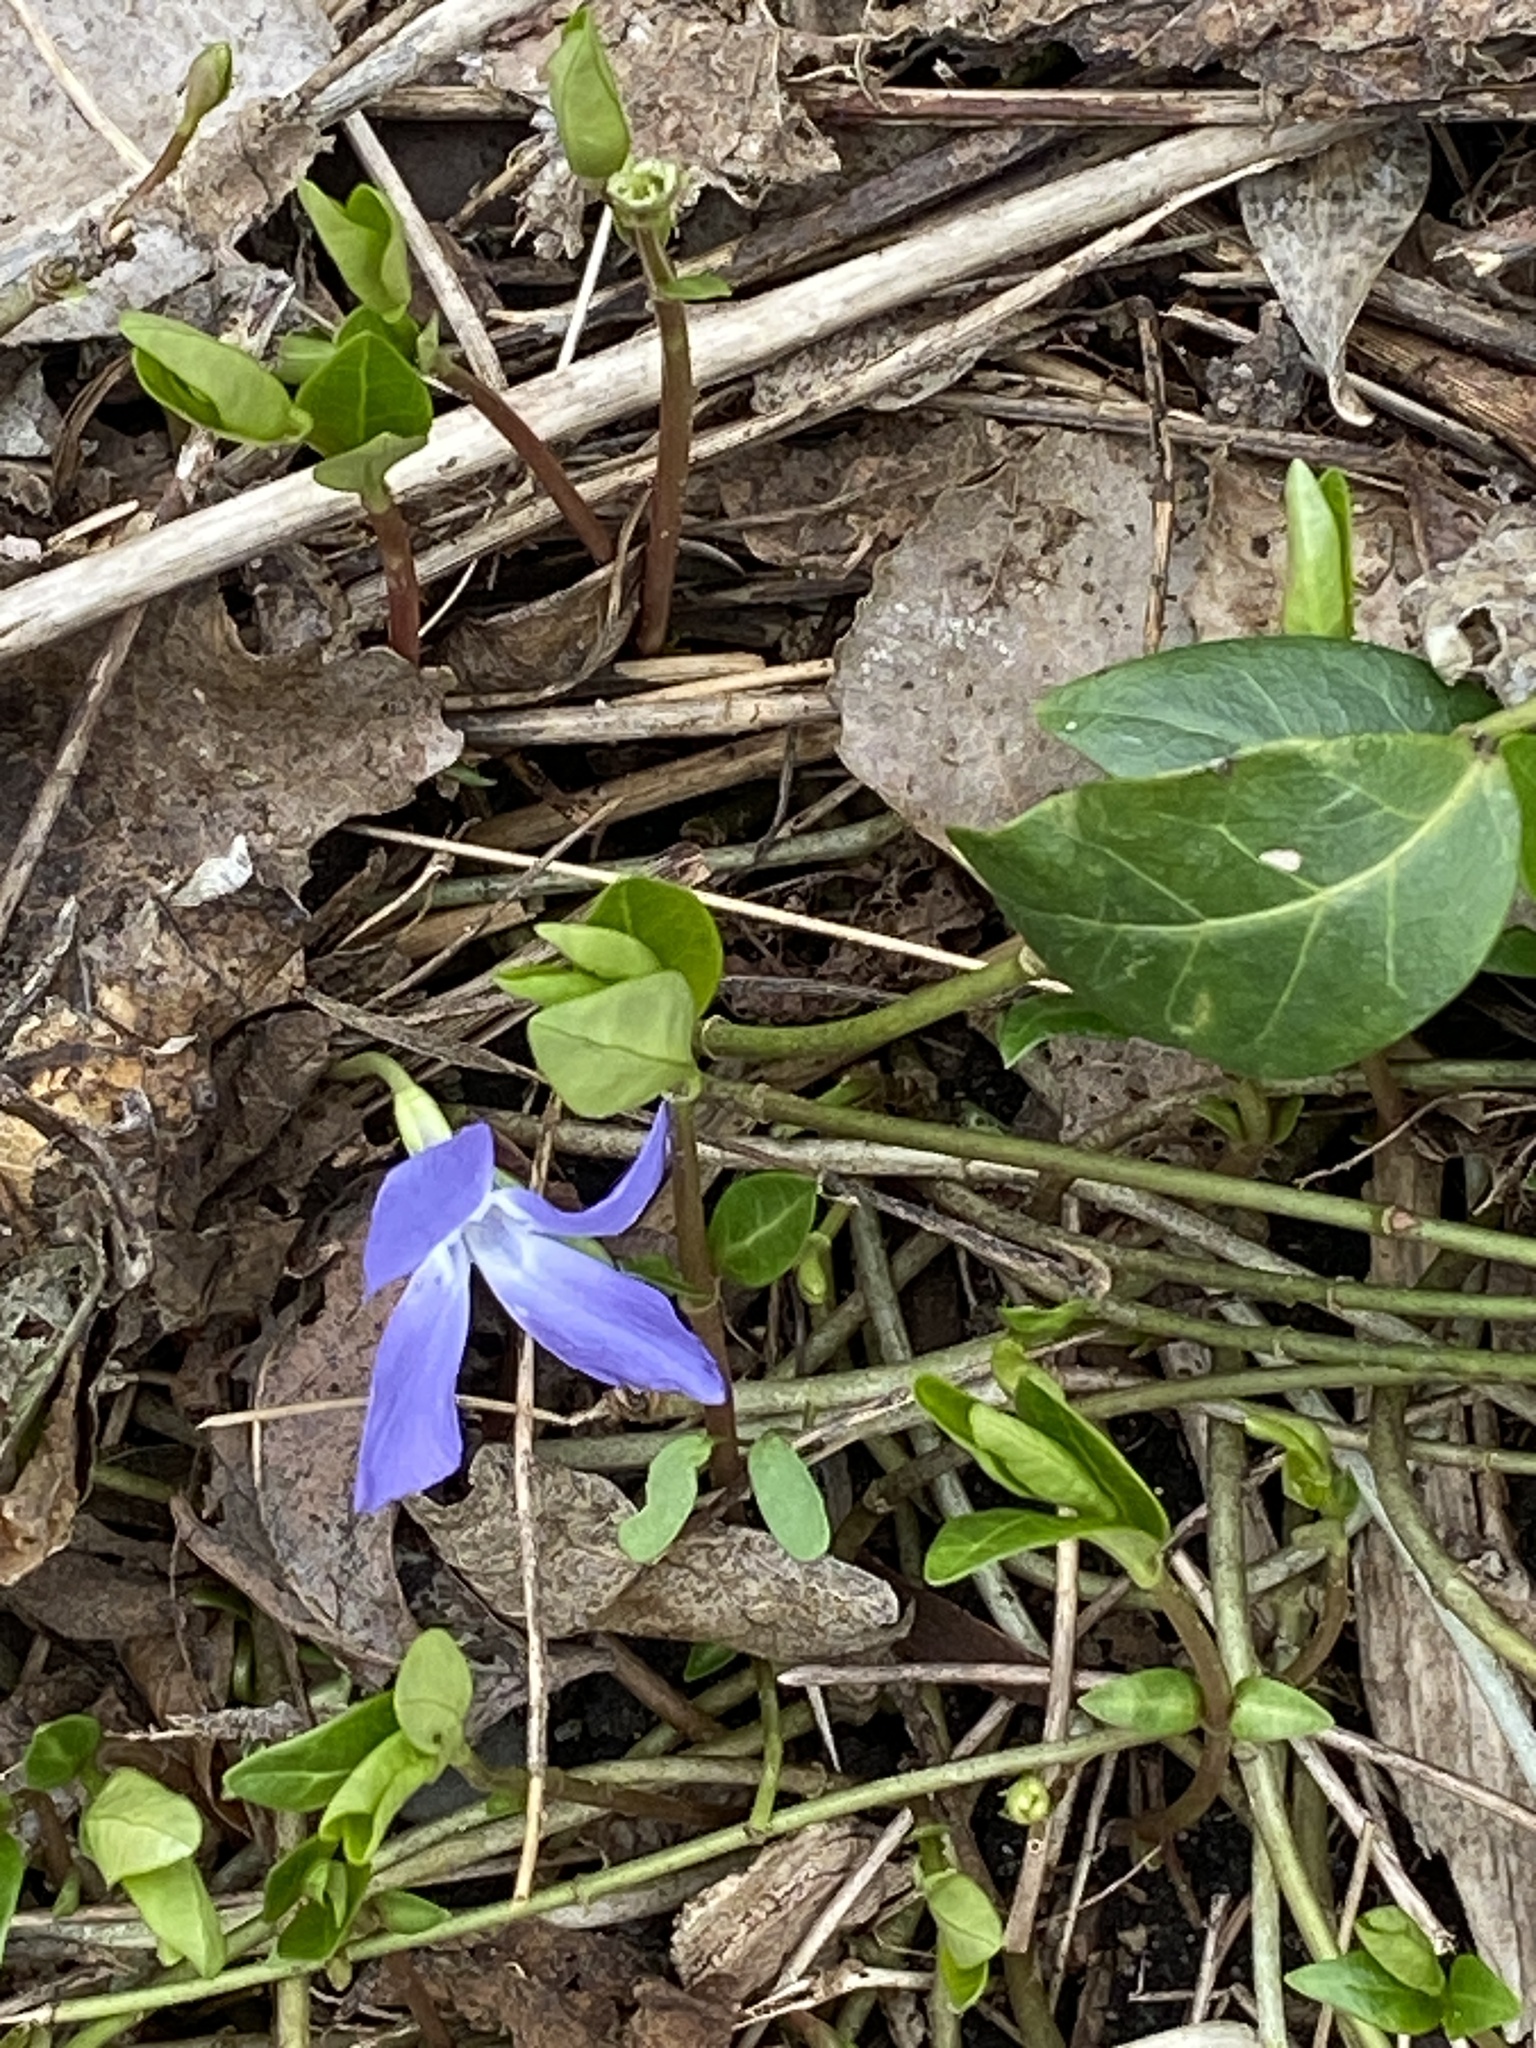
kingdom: Plantae
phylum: Tracheophyta
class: Magnoliopsida
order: Gentianales
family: Apocynaceae
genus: Vinca
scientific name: Vinca minor
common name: Lesser periwinkle
